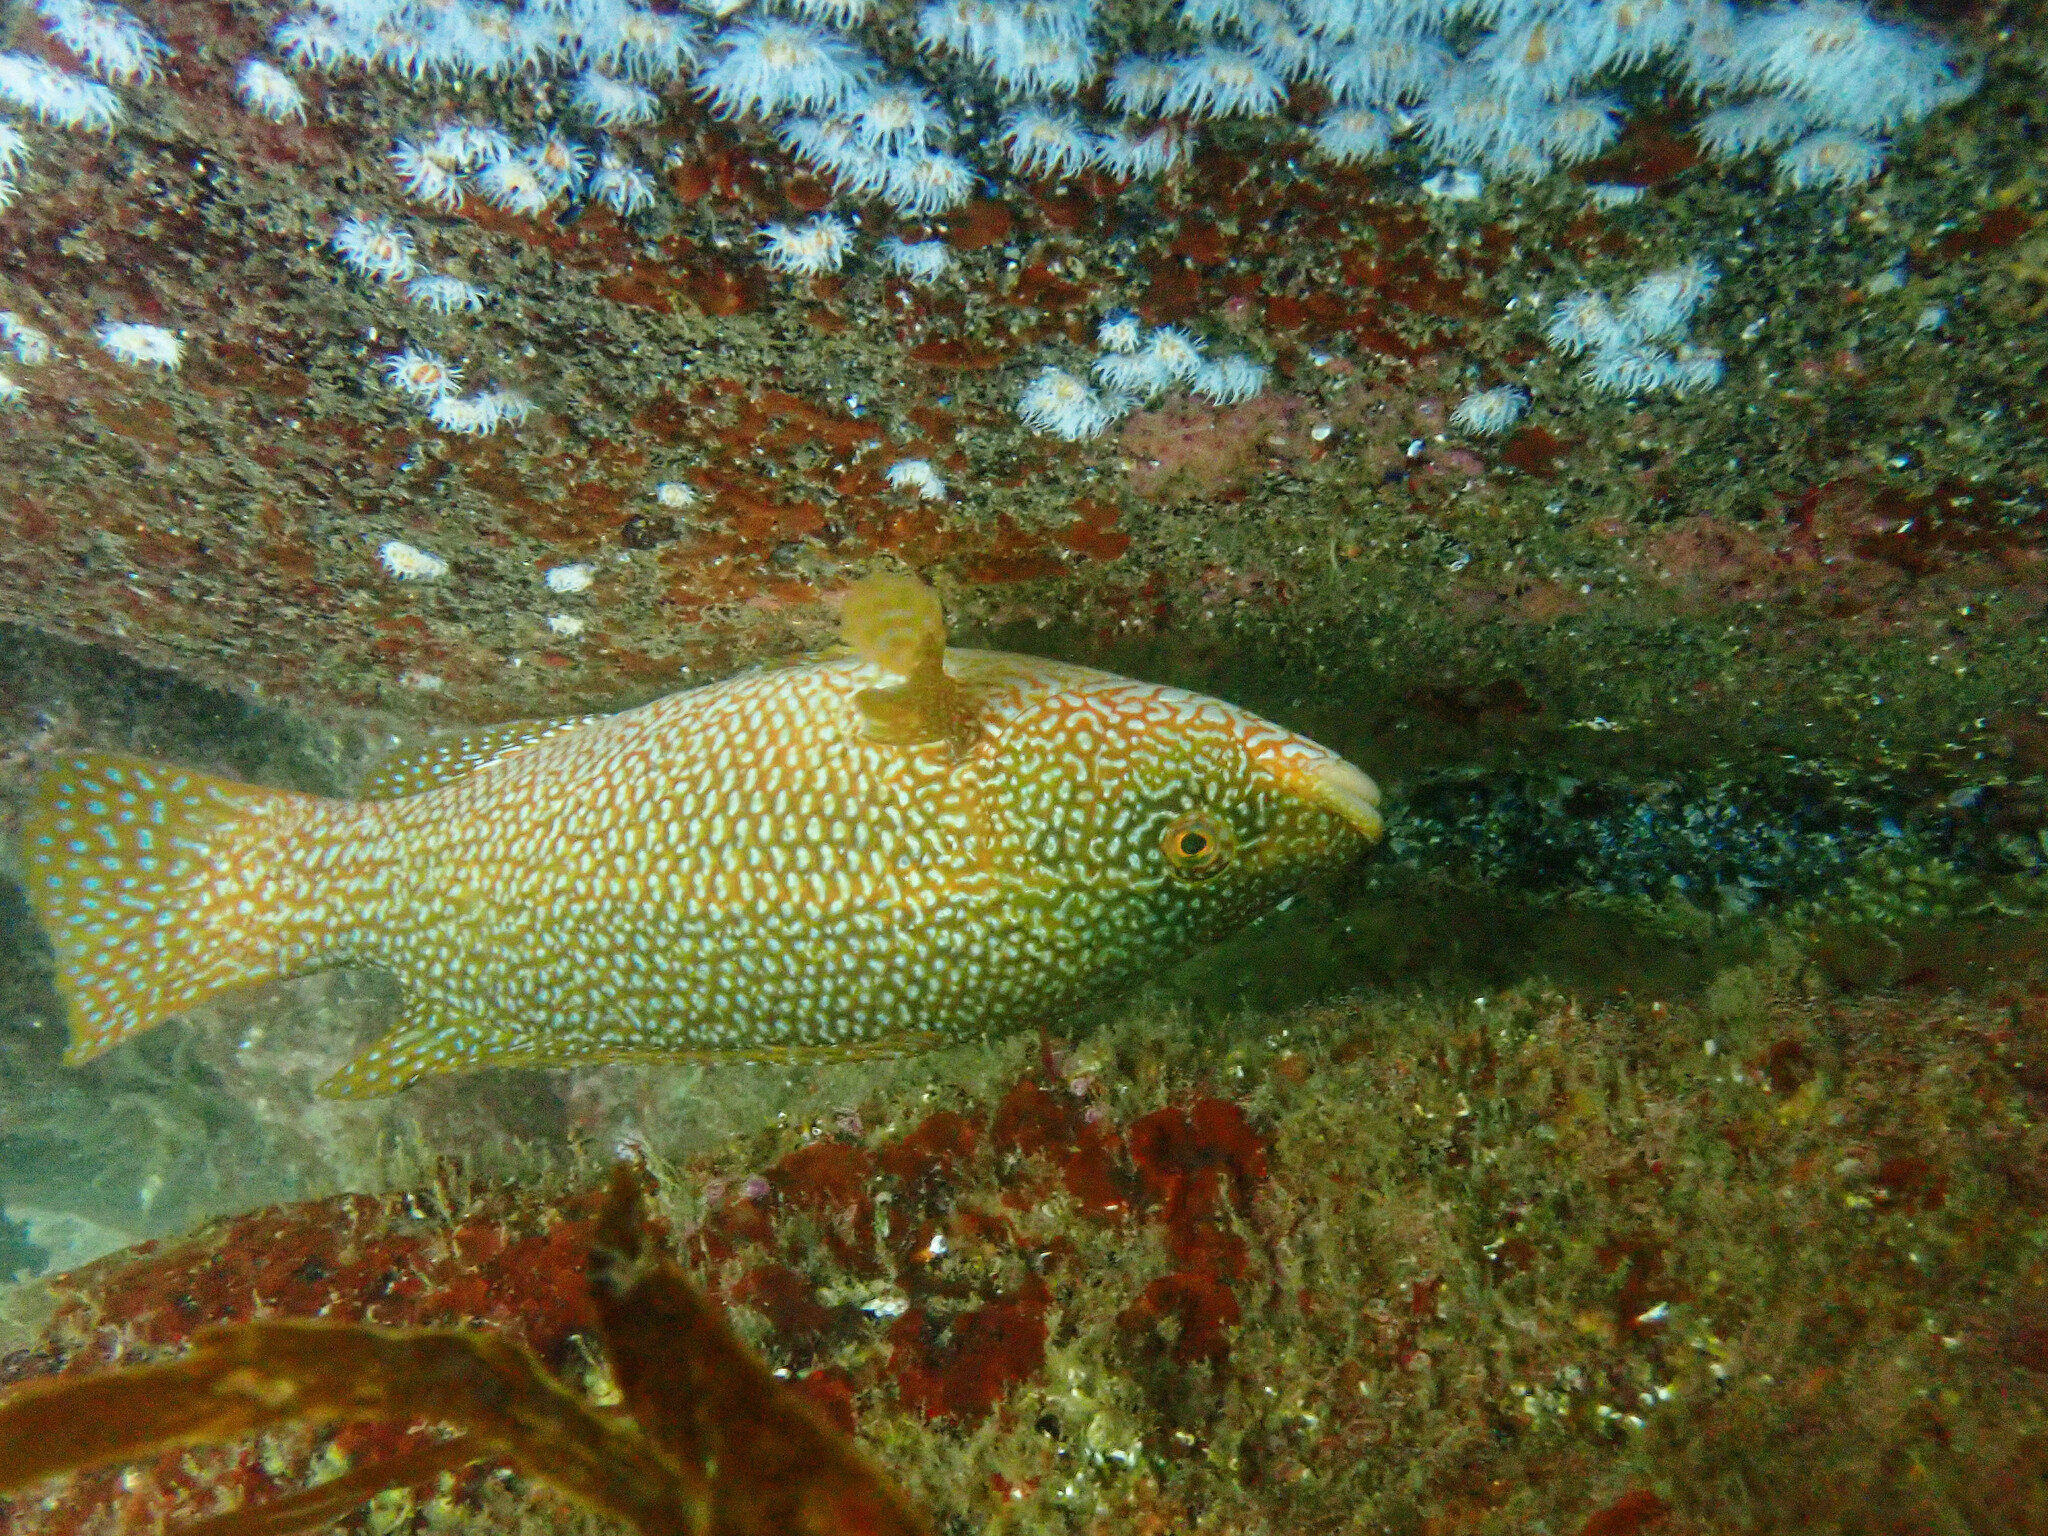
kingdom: Animalia
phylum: Chordata
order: Perciformes
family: Labridae
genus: Labrus
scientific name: Labrus bergylta
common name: Ballan wrasse
